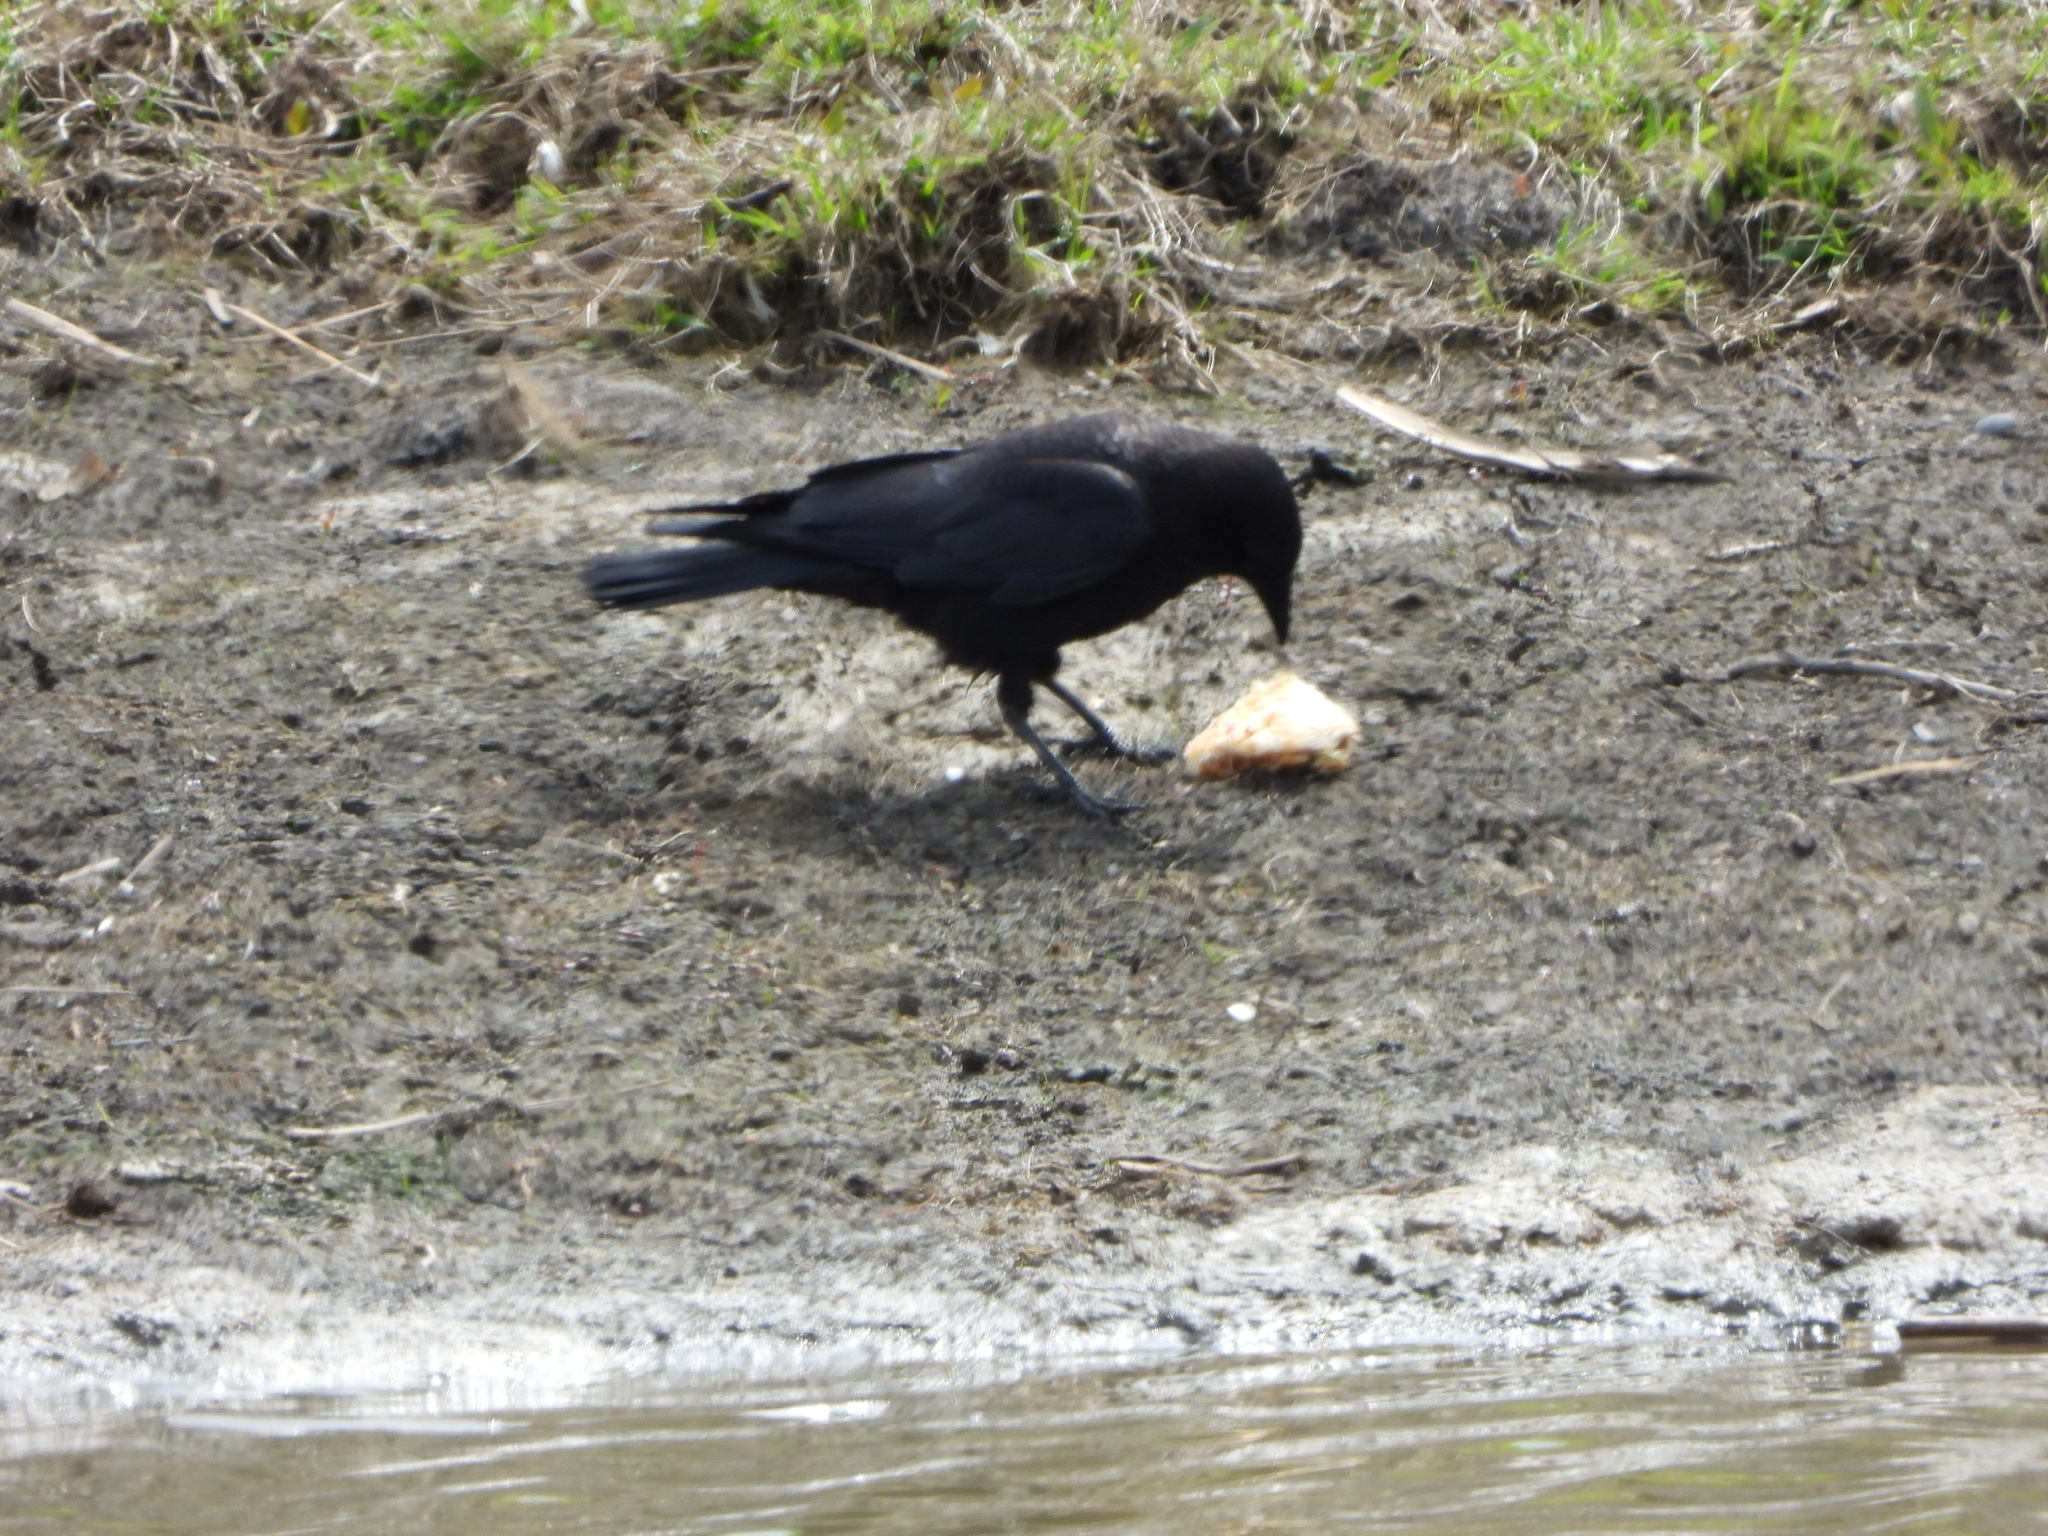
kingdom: Animalia
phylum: Chordata
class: Aves
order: Passeriformes
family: Corvidae
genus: Corvus
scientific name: Corvus brachyrhynchos
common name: American crow
